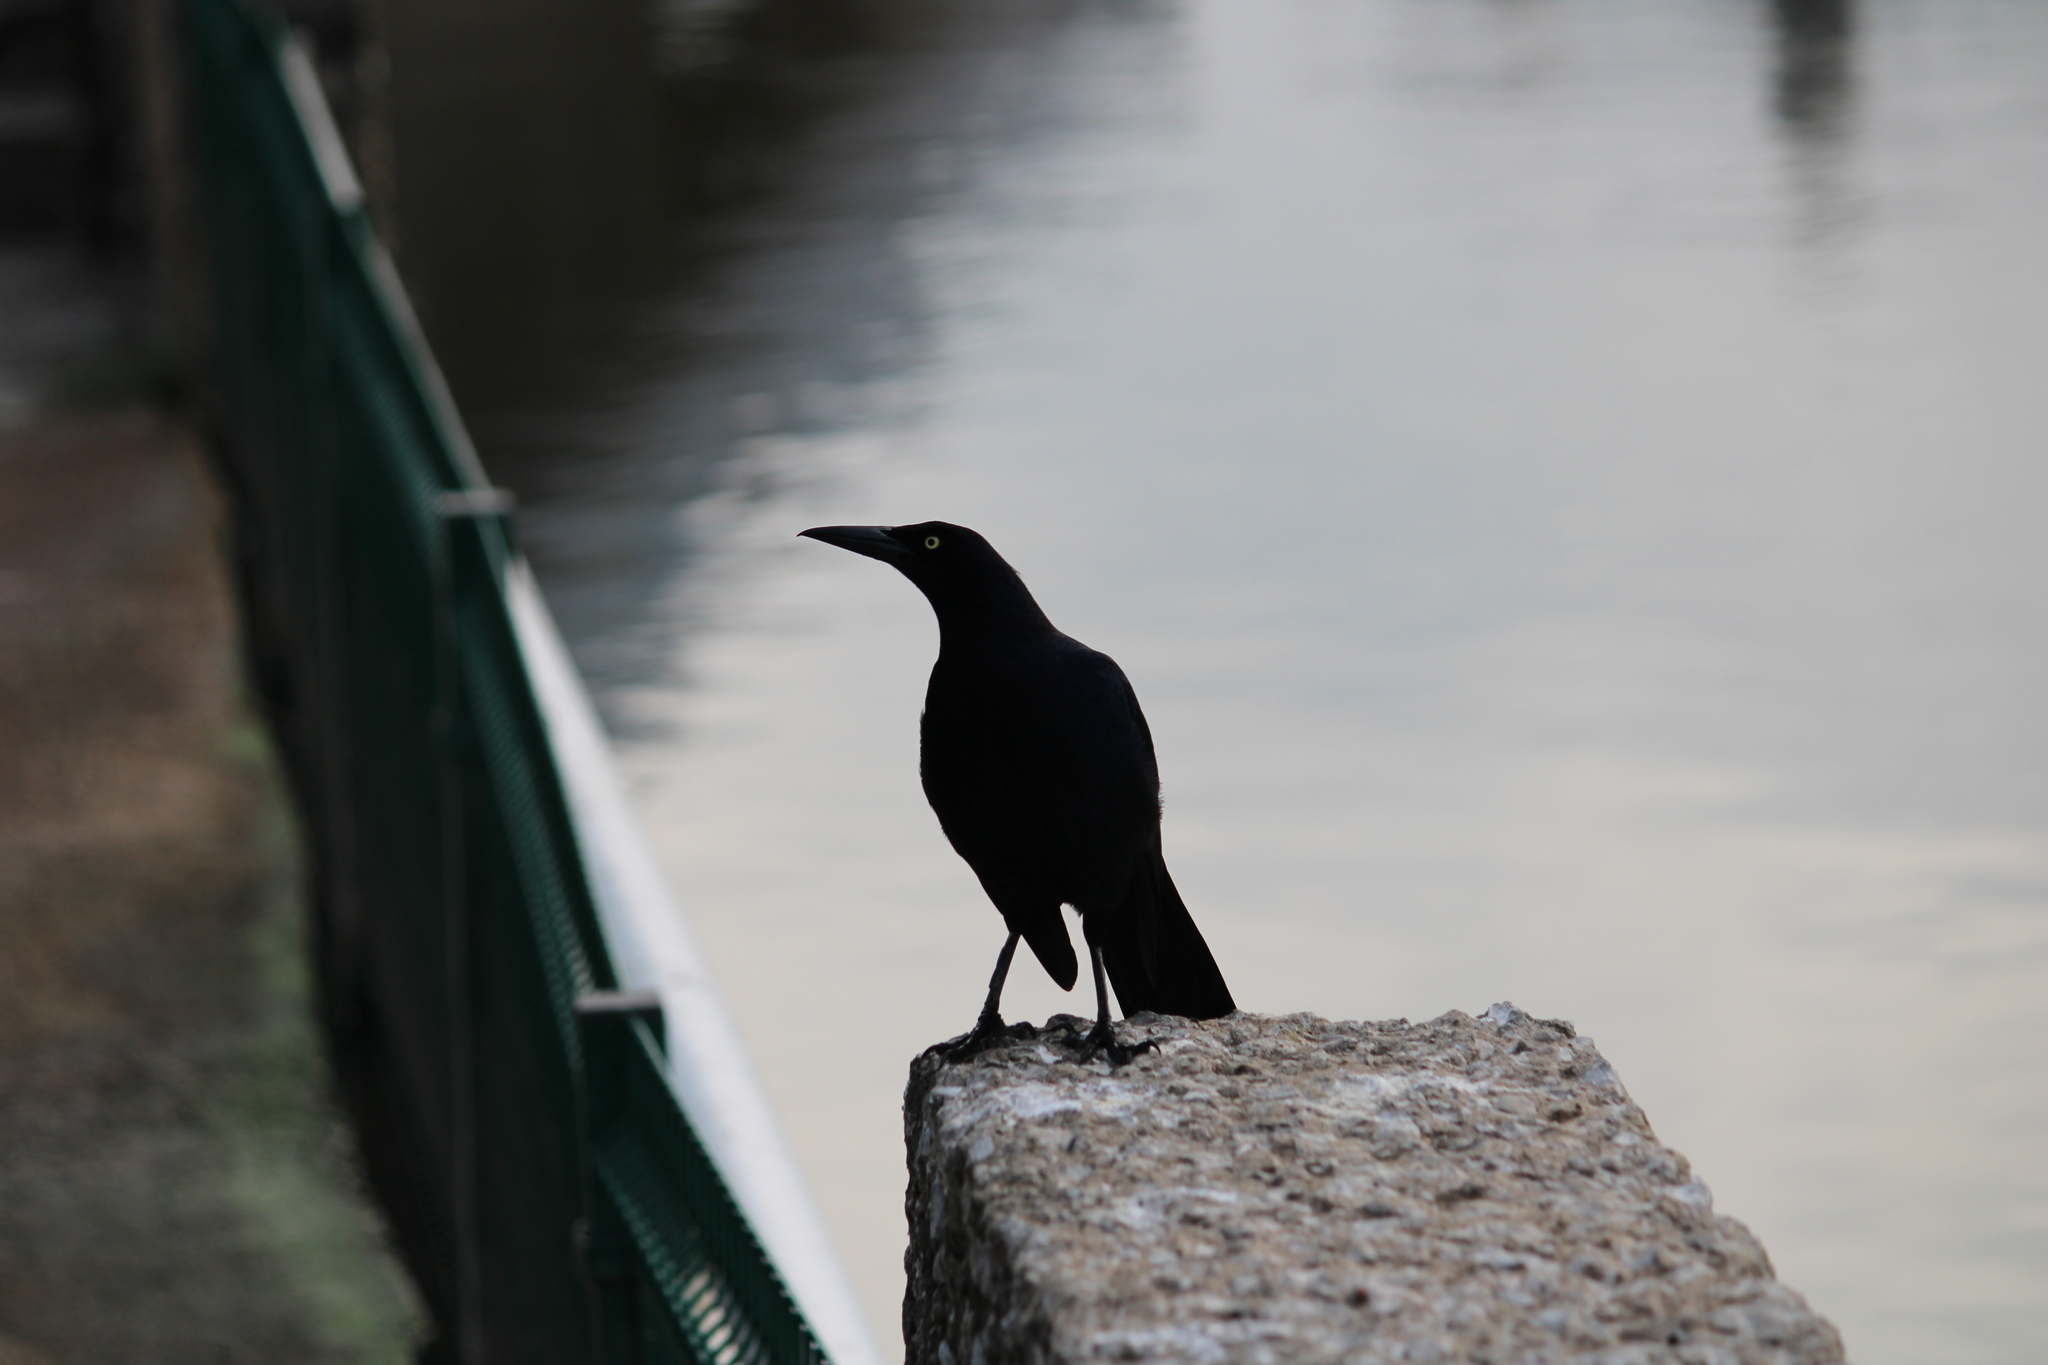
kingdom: Animalia
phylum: Chordata
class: Aves
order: Passeriformes
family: Icteridae
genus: Quiscalus
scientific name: Quiscalus mexicanus
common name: Great-tailed grackle
